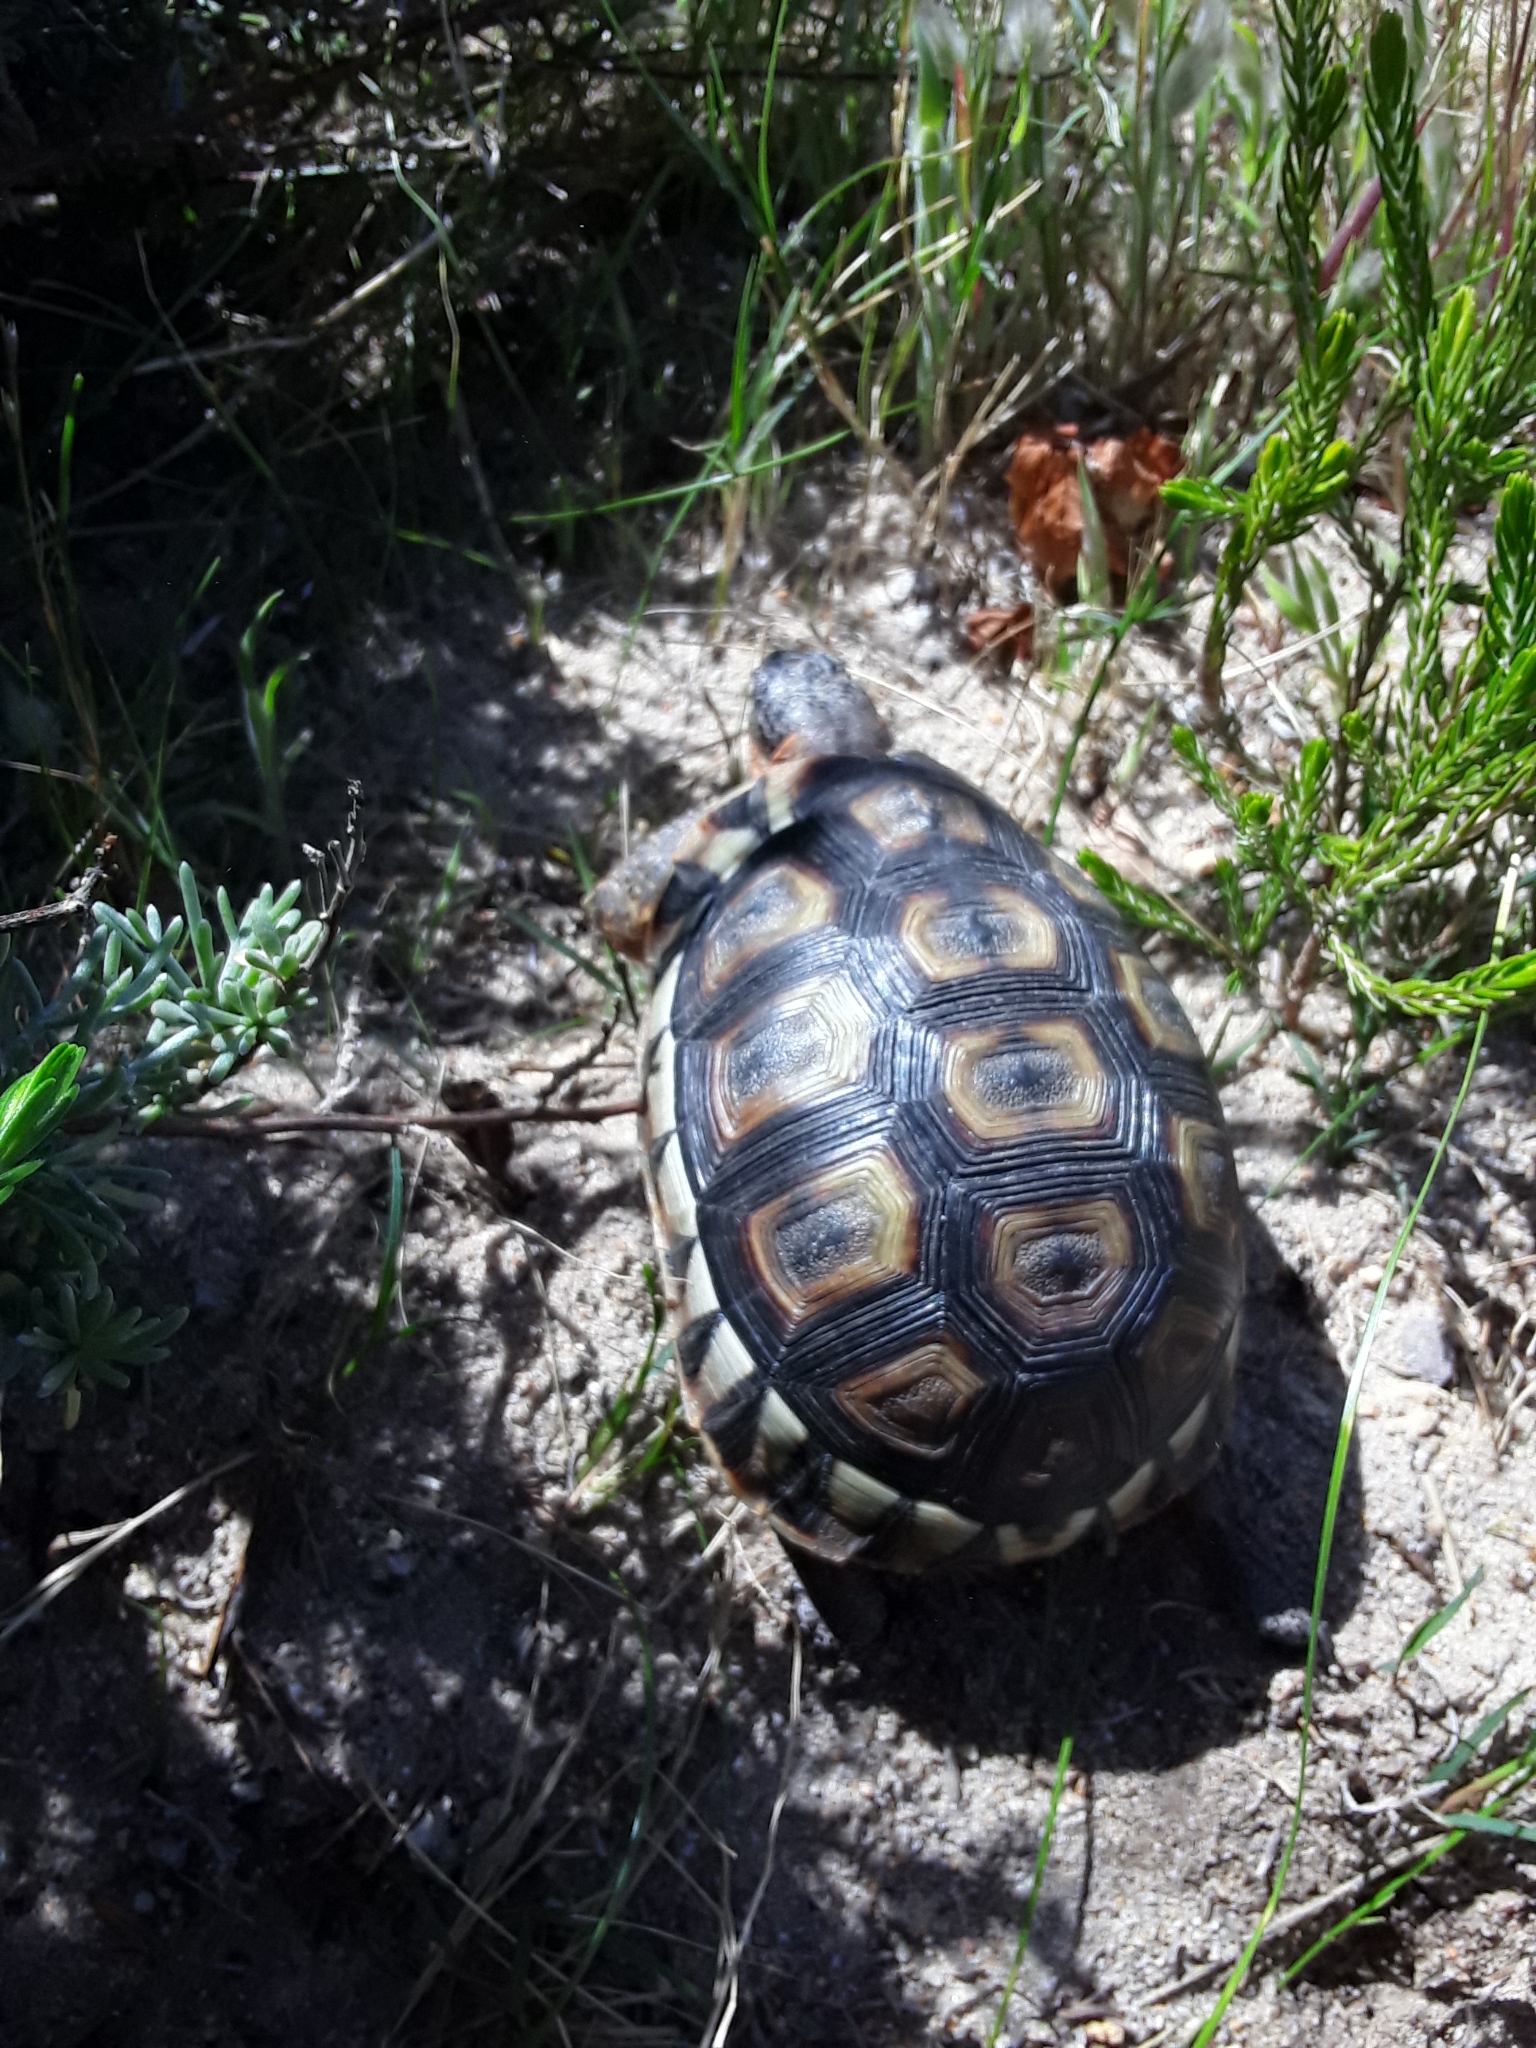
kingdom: Animalia
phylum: Chordata
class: Testudines
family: Testudinidae
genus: Chersina
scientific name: Chersina angulata
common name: South african bowsprit tortoise
